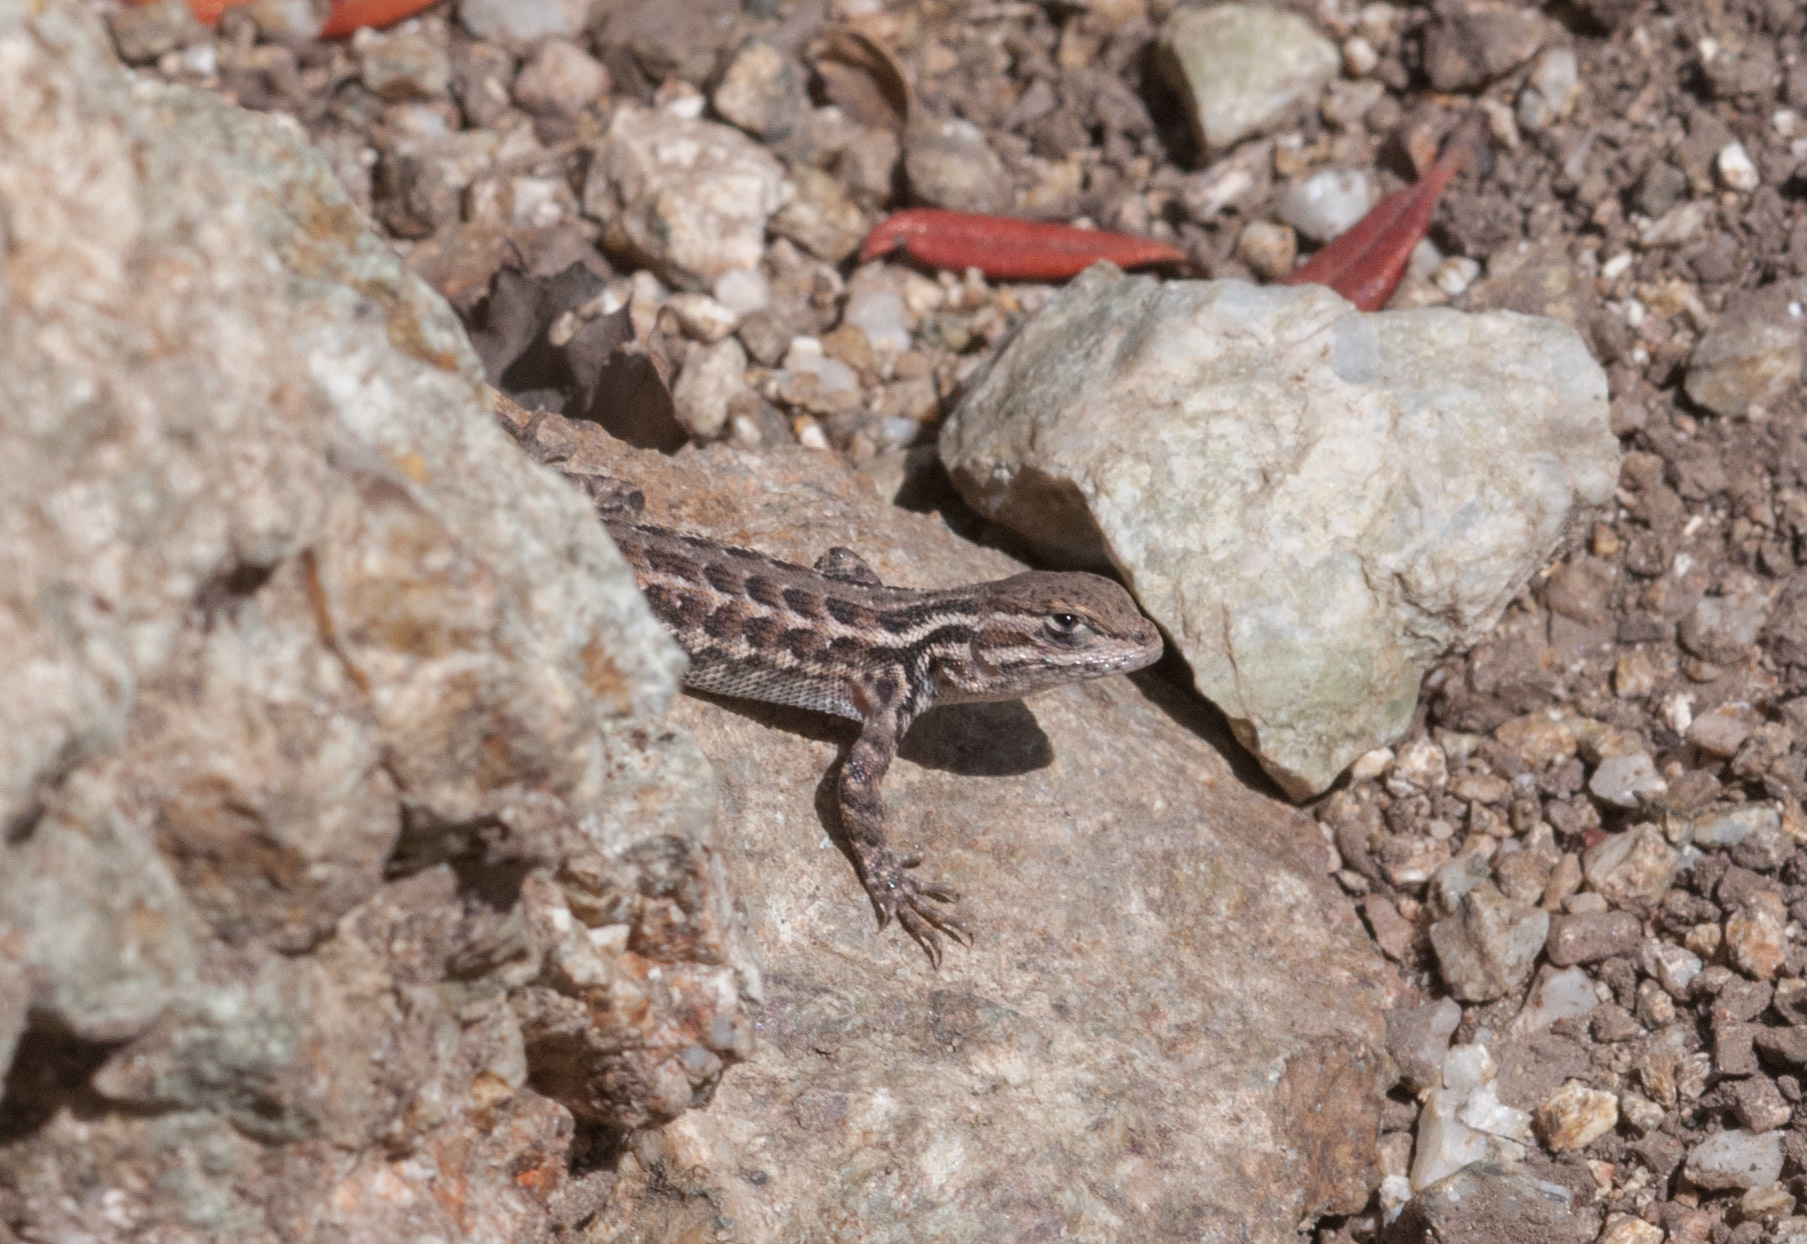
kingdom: Animalia
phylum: Chordata
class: Squamata
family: Phrynosomatidae
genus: Sceloporus
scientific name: Sceloporus graciosus
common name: Sagebrush lizard
